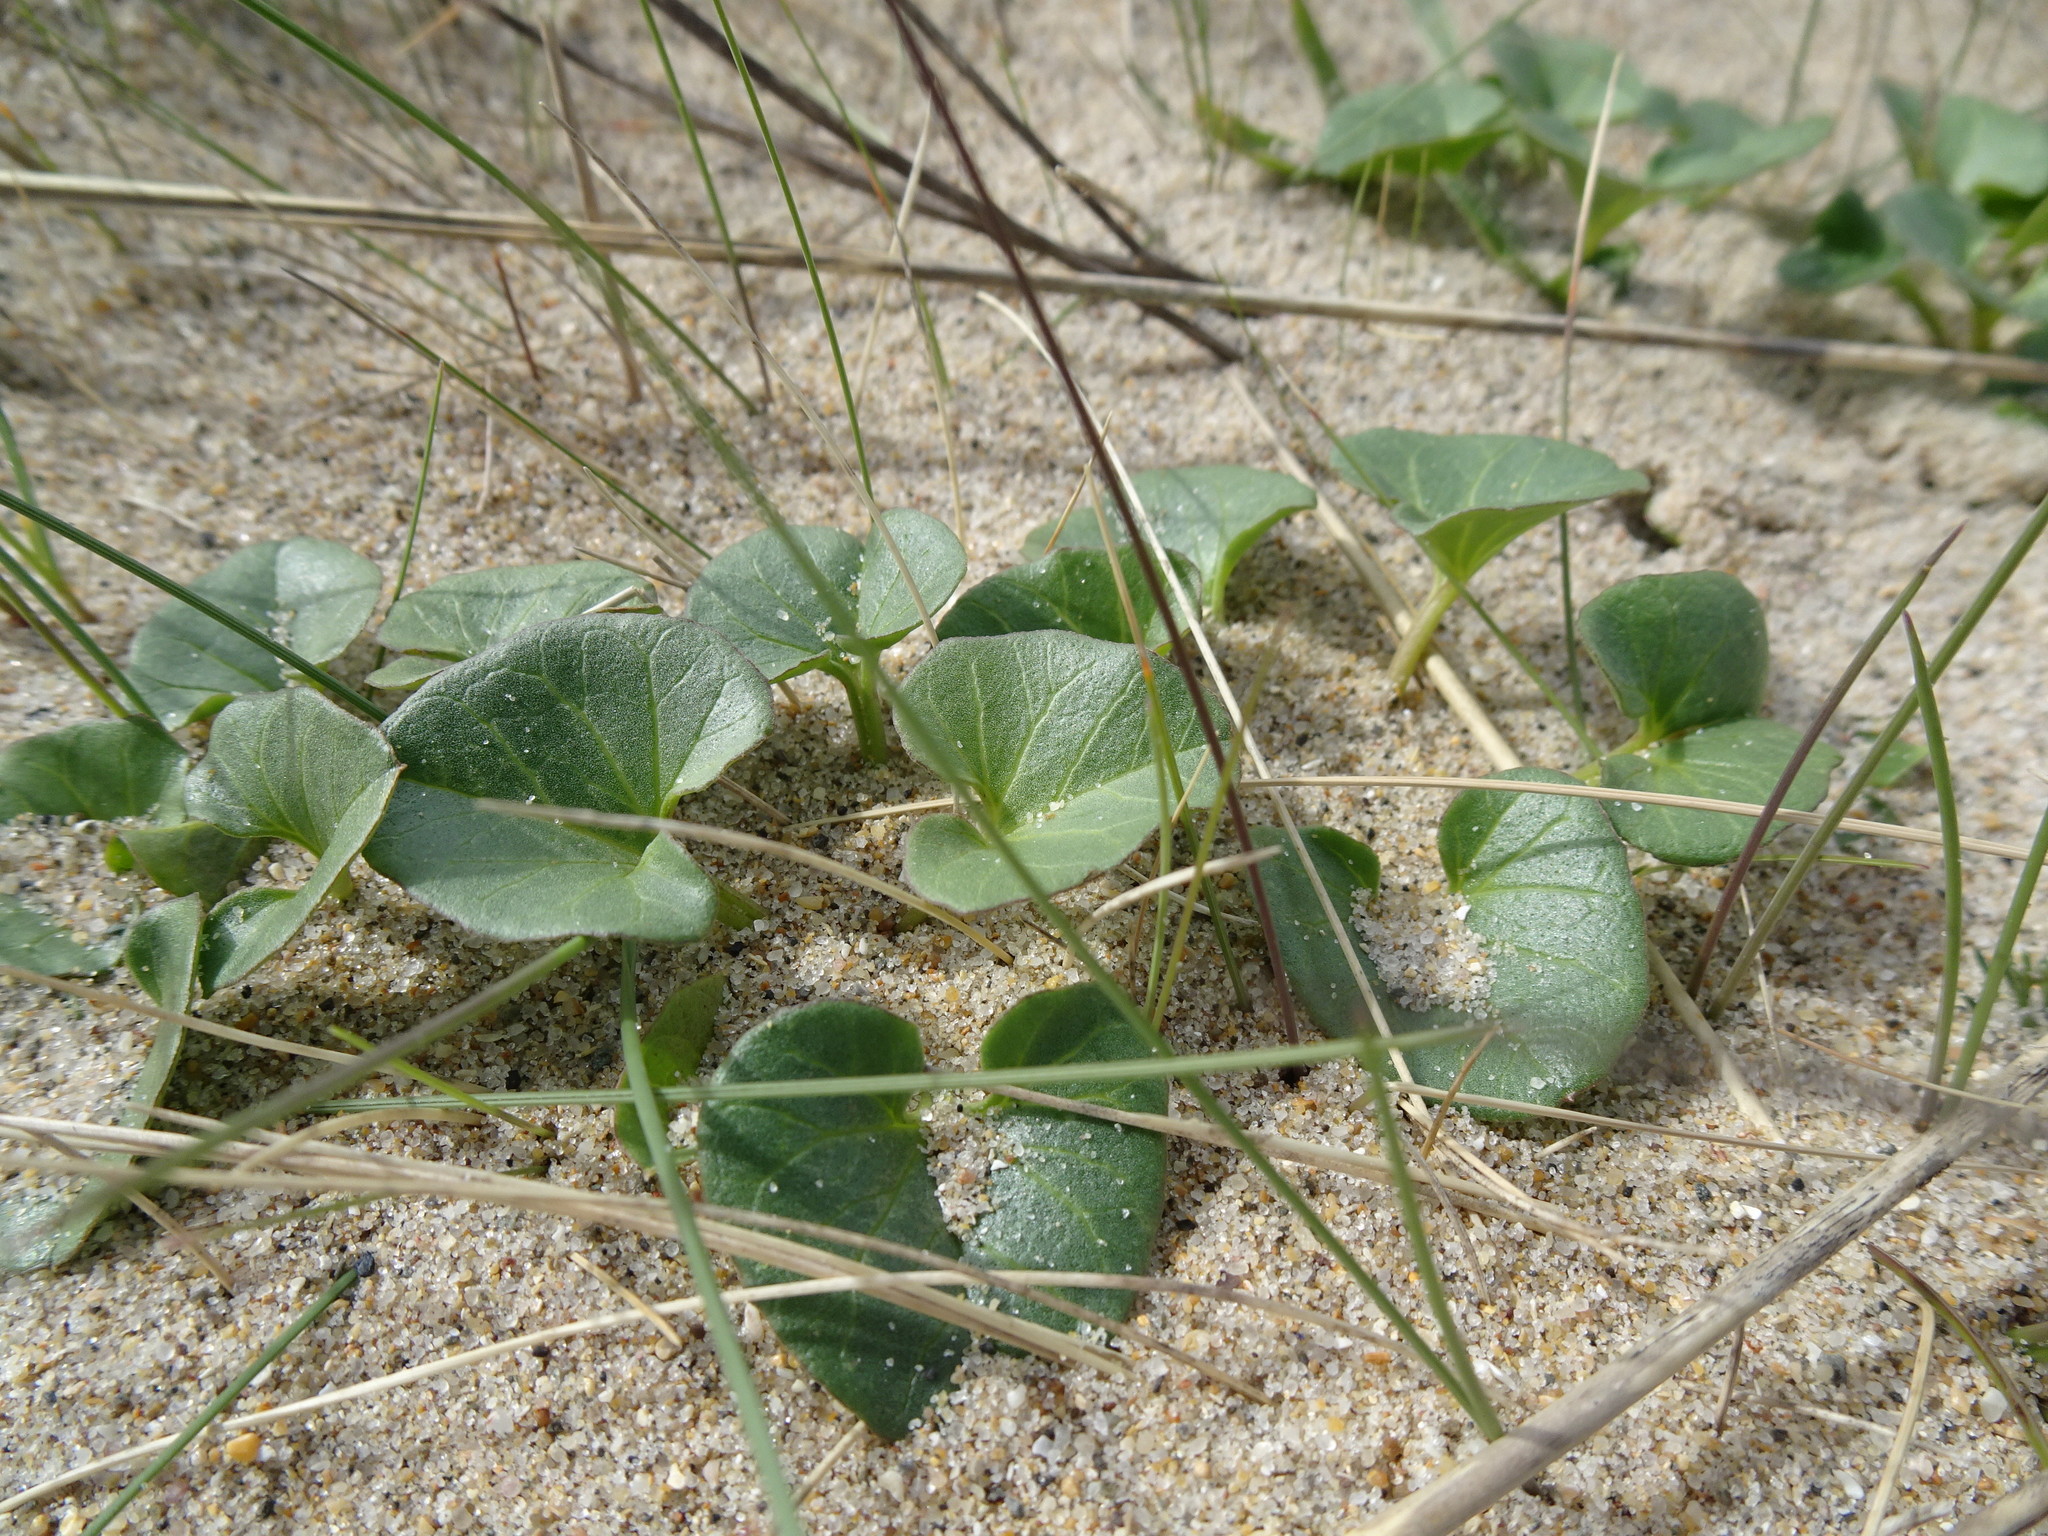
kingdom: Plantae
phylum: Tracheophyta
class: Magnoliopsida
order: Solanales
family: Convolvulaceae
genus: Calystegia
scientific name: Calystegia soldanella
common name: Sea bindweed
